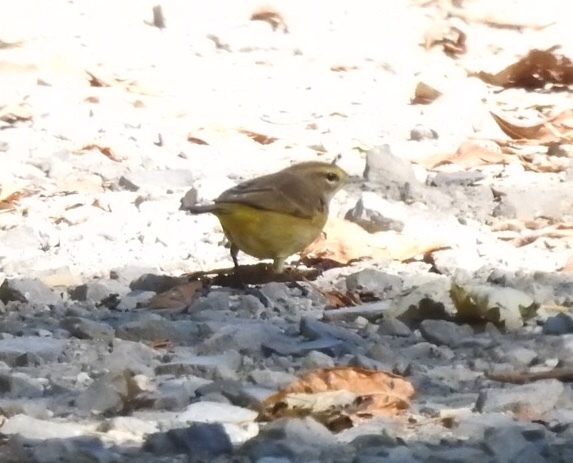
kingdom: Animalia
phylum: Chordata
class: Aves
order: Passeriformes
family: Parulidae
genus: Setophaga
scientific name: Setophaga palmarum
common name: Palm warbler
